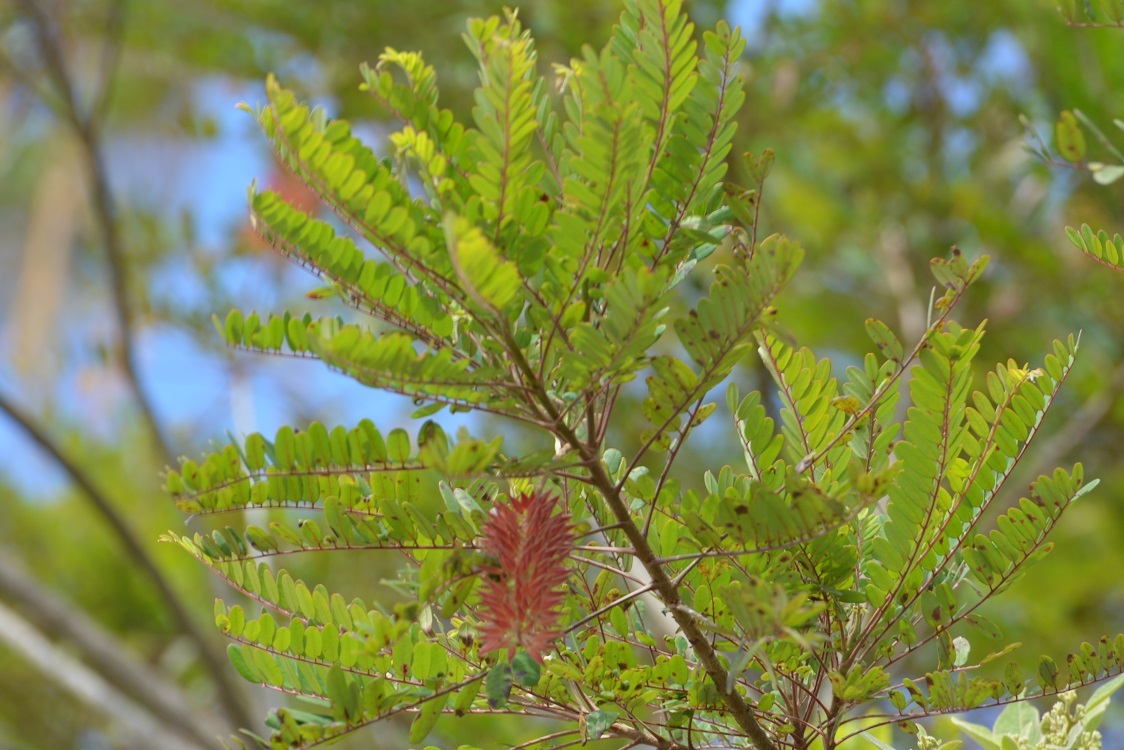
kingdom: Plantae
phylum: Tracheophyta
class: Magnoliopsida
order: Picramniales
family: Picramniaceae
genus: Alvaradoa
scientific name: Alvaradoa amorphoides
